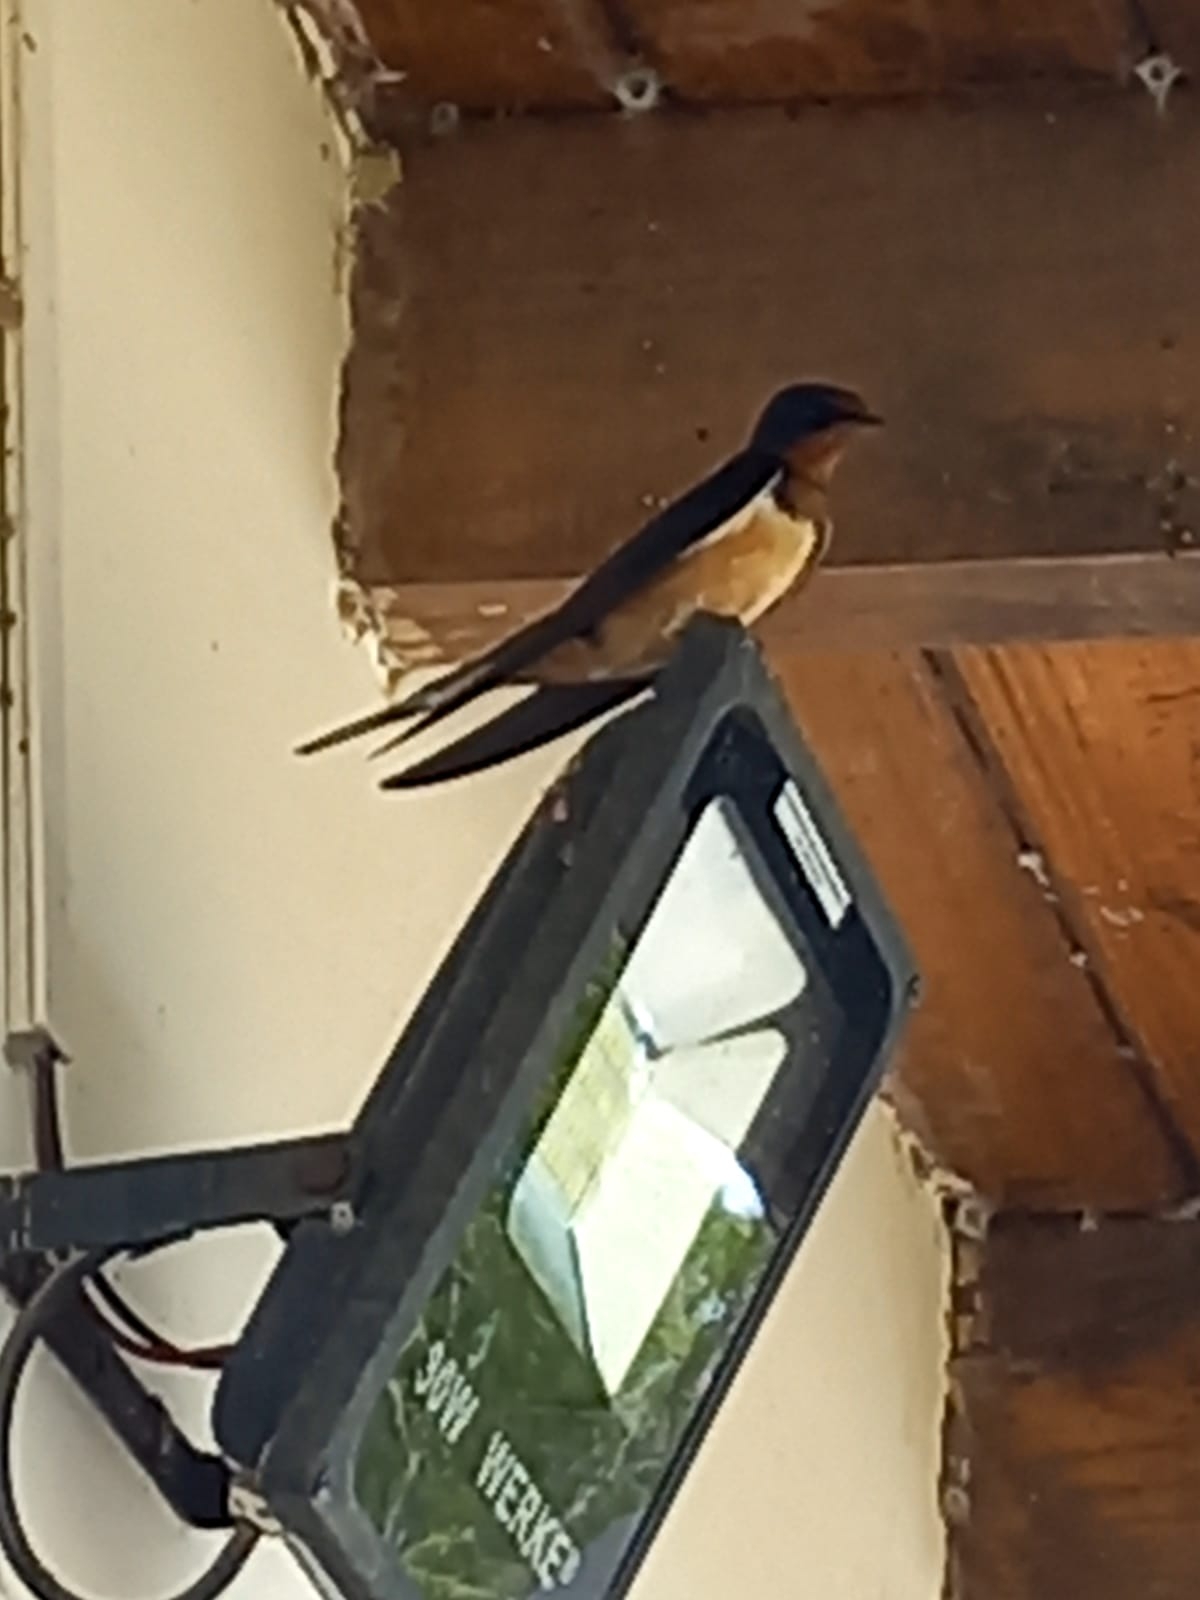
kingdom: Animalia
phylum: Chordata
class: Aves
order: Passeriformes
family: Hirundinidae
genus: Hirundo
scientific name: Hirundo rustica
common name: Barn swallow
